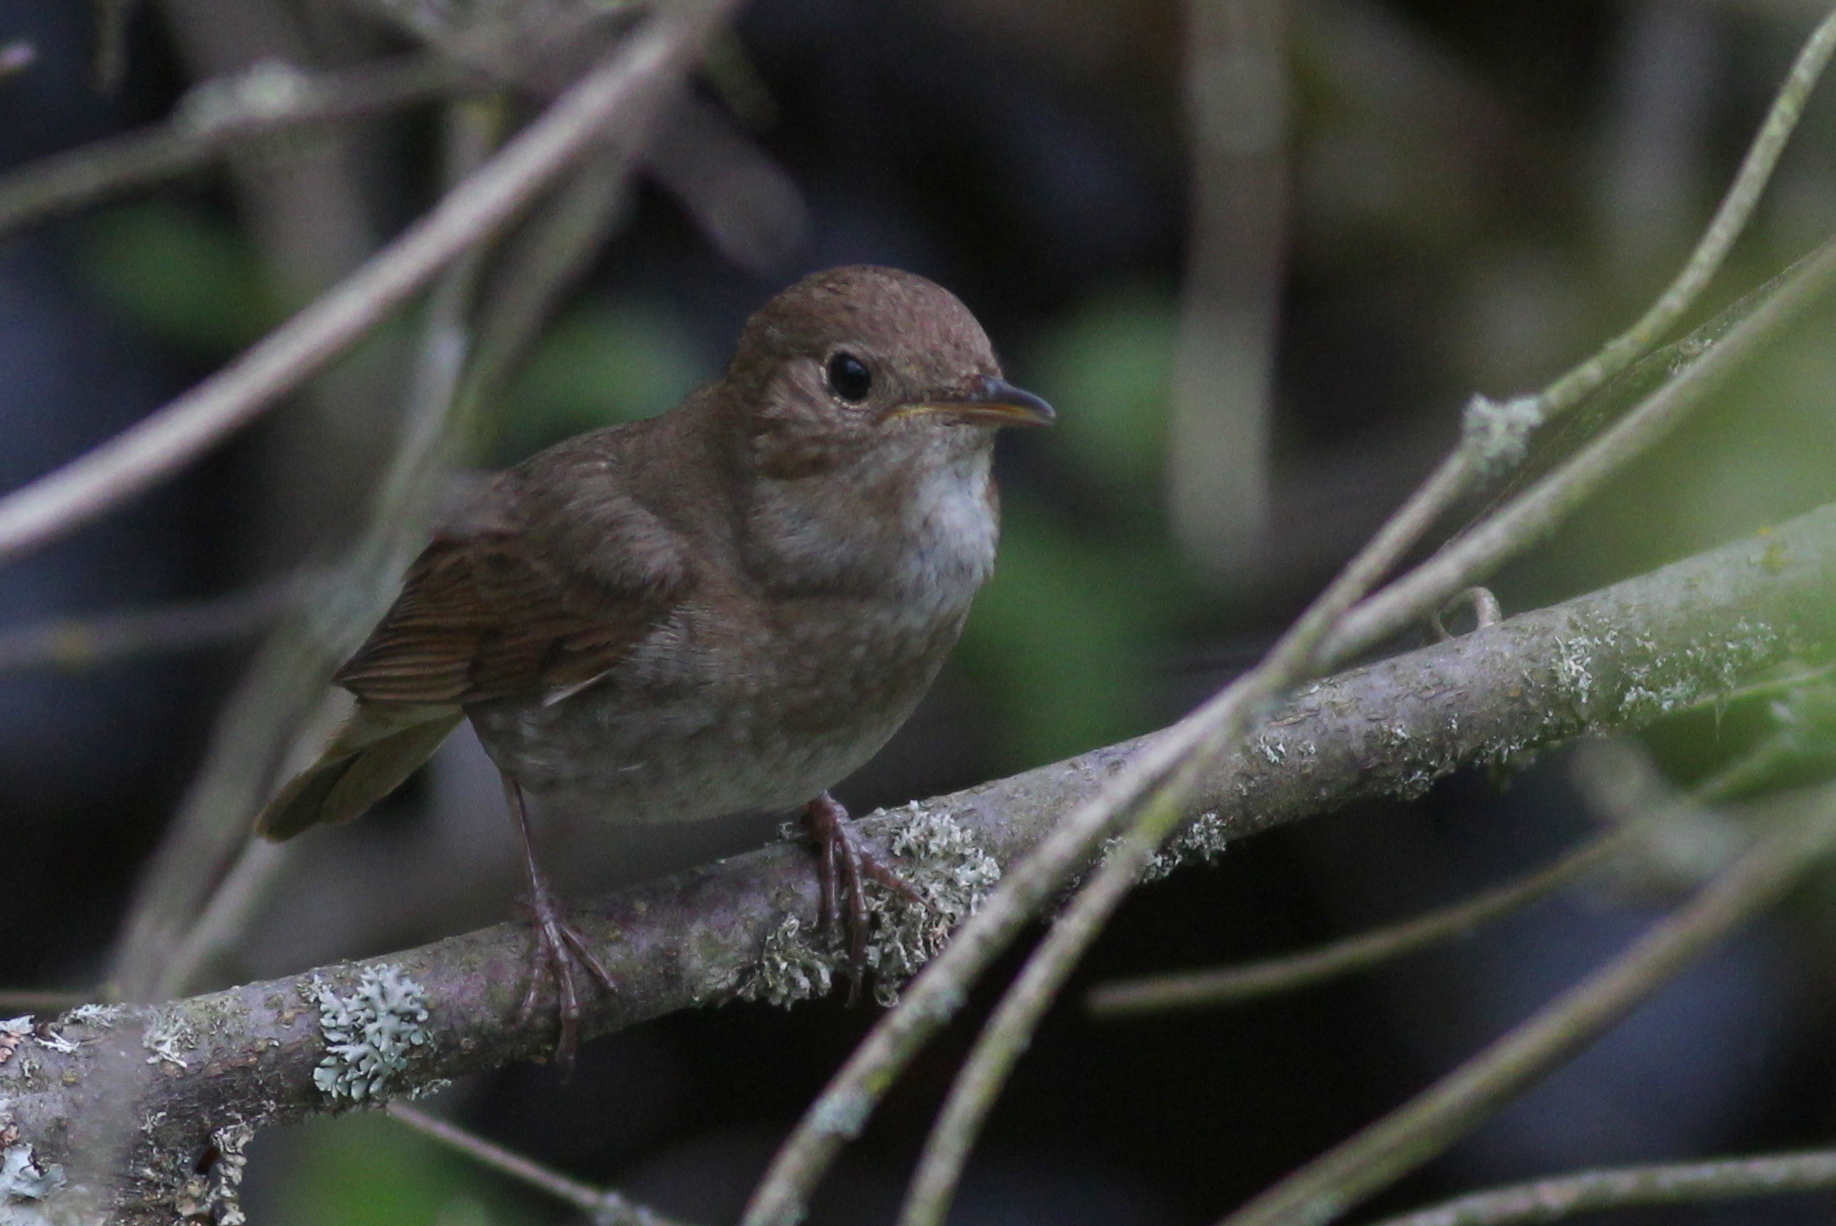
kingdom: Animalia
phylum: Chordata
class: Aves
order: Passeriformes
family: Muscicapidae
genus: Luscinia
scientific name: Luscinia luscinia
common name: Thrush nightingale
